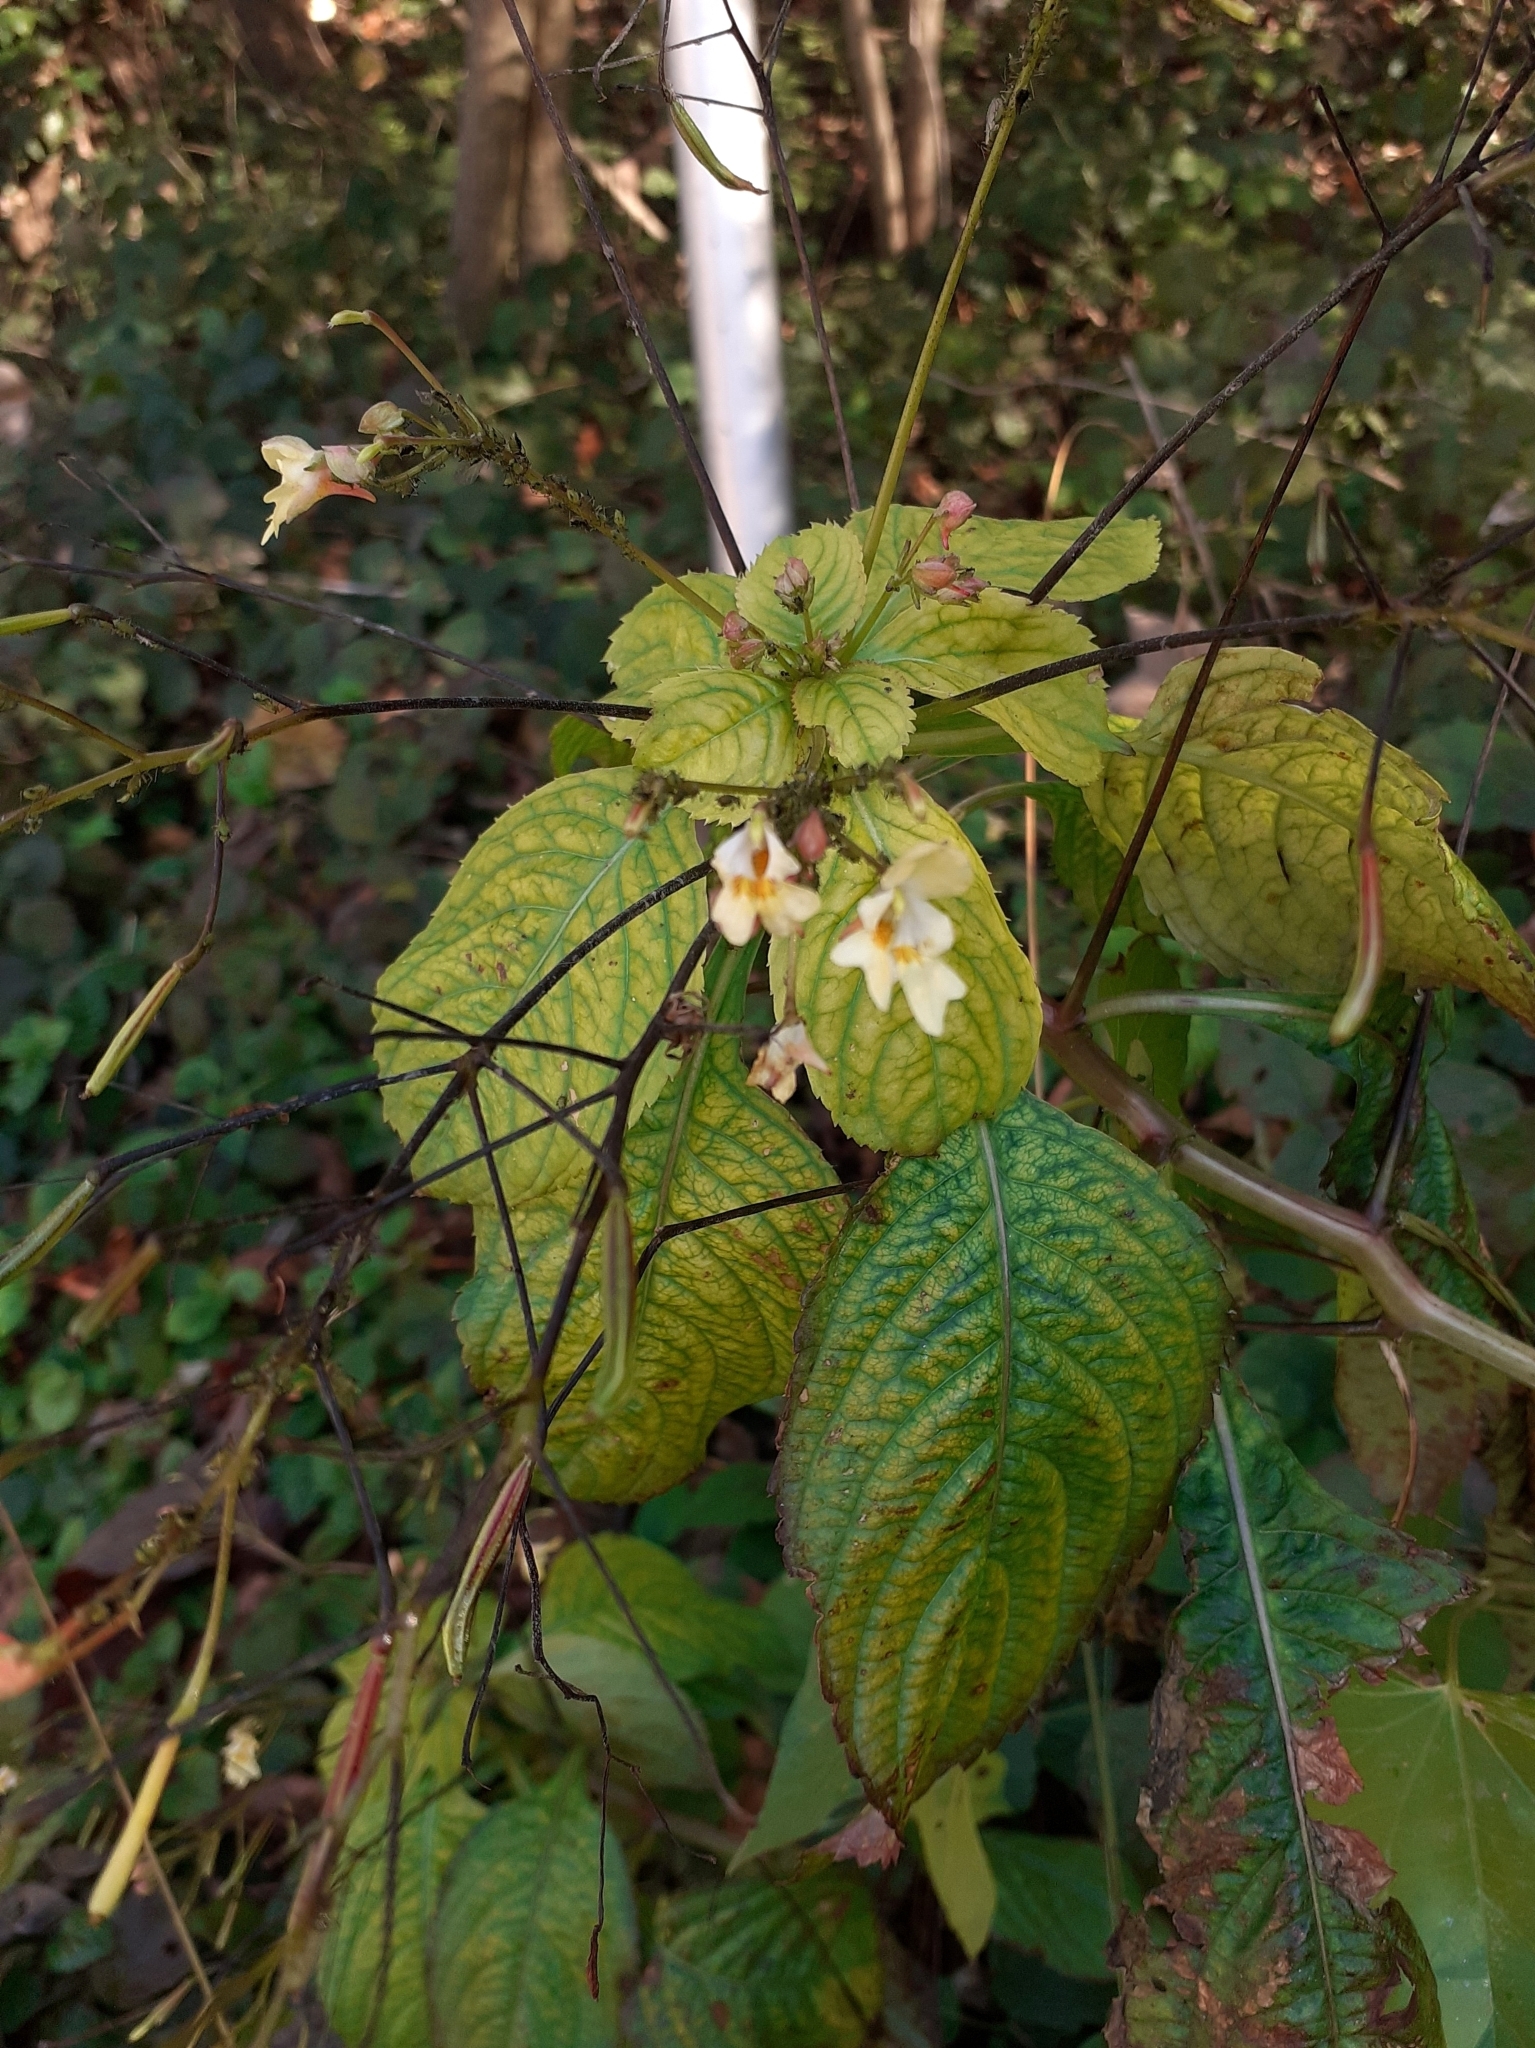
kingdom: Plantae
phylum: Tracheophyta
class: Magnoliopsida
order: Ericales
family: Balsaminaceae
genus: Impatiens
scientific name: Impatiens parviflora
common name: Small balsam
